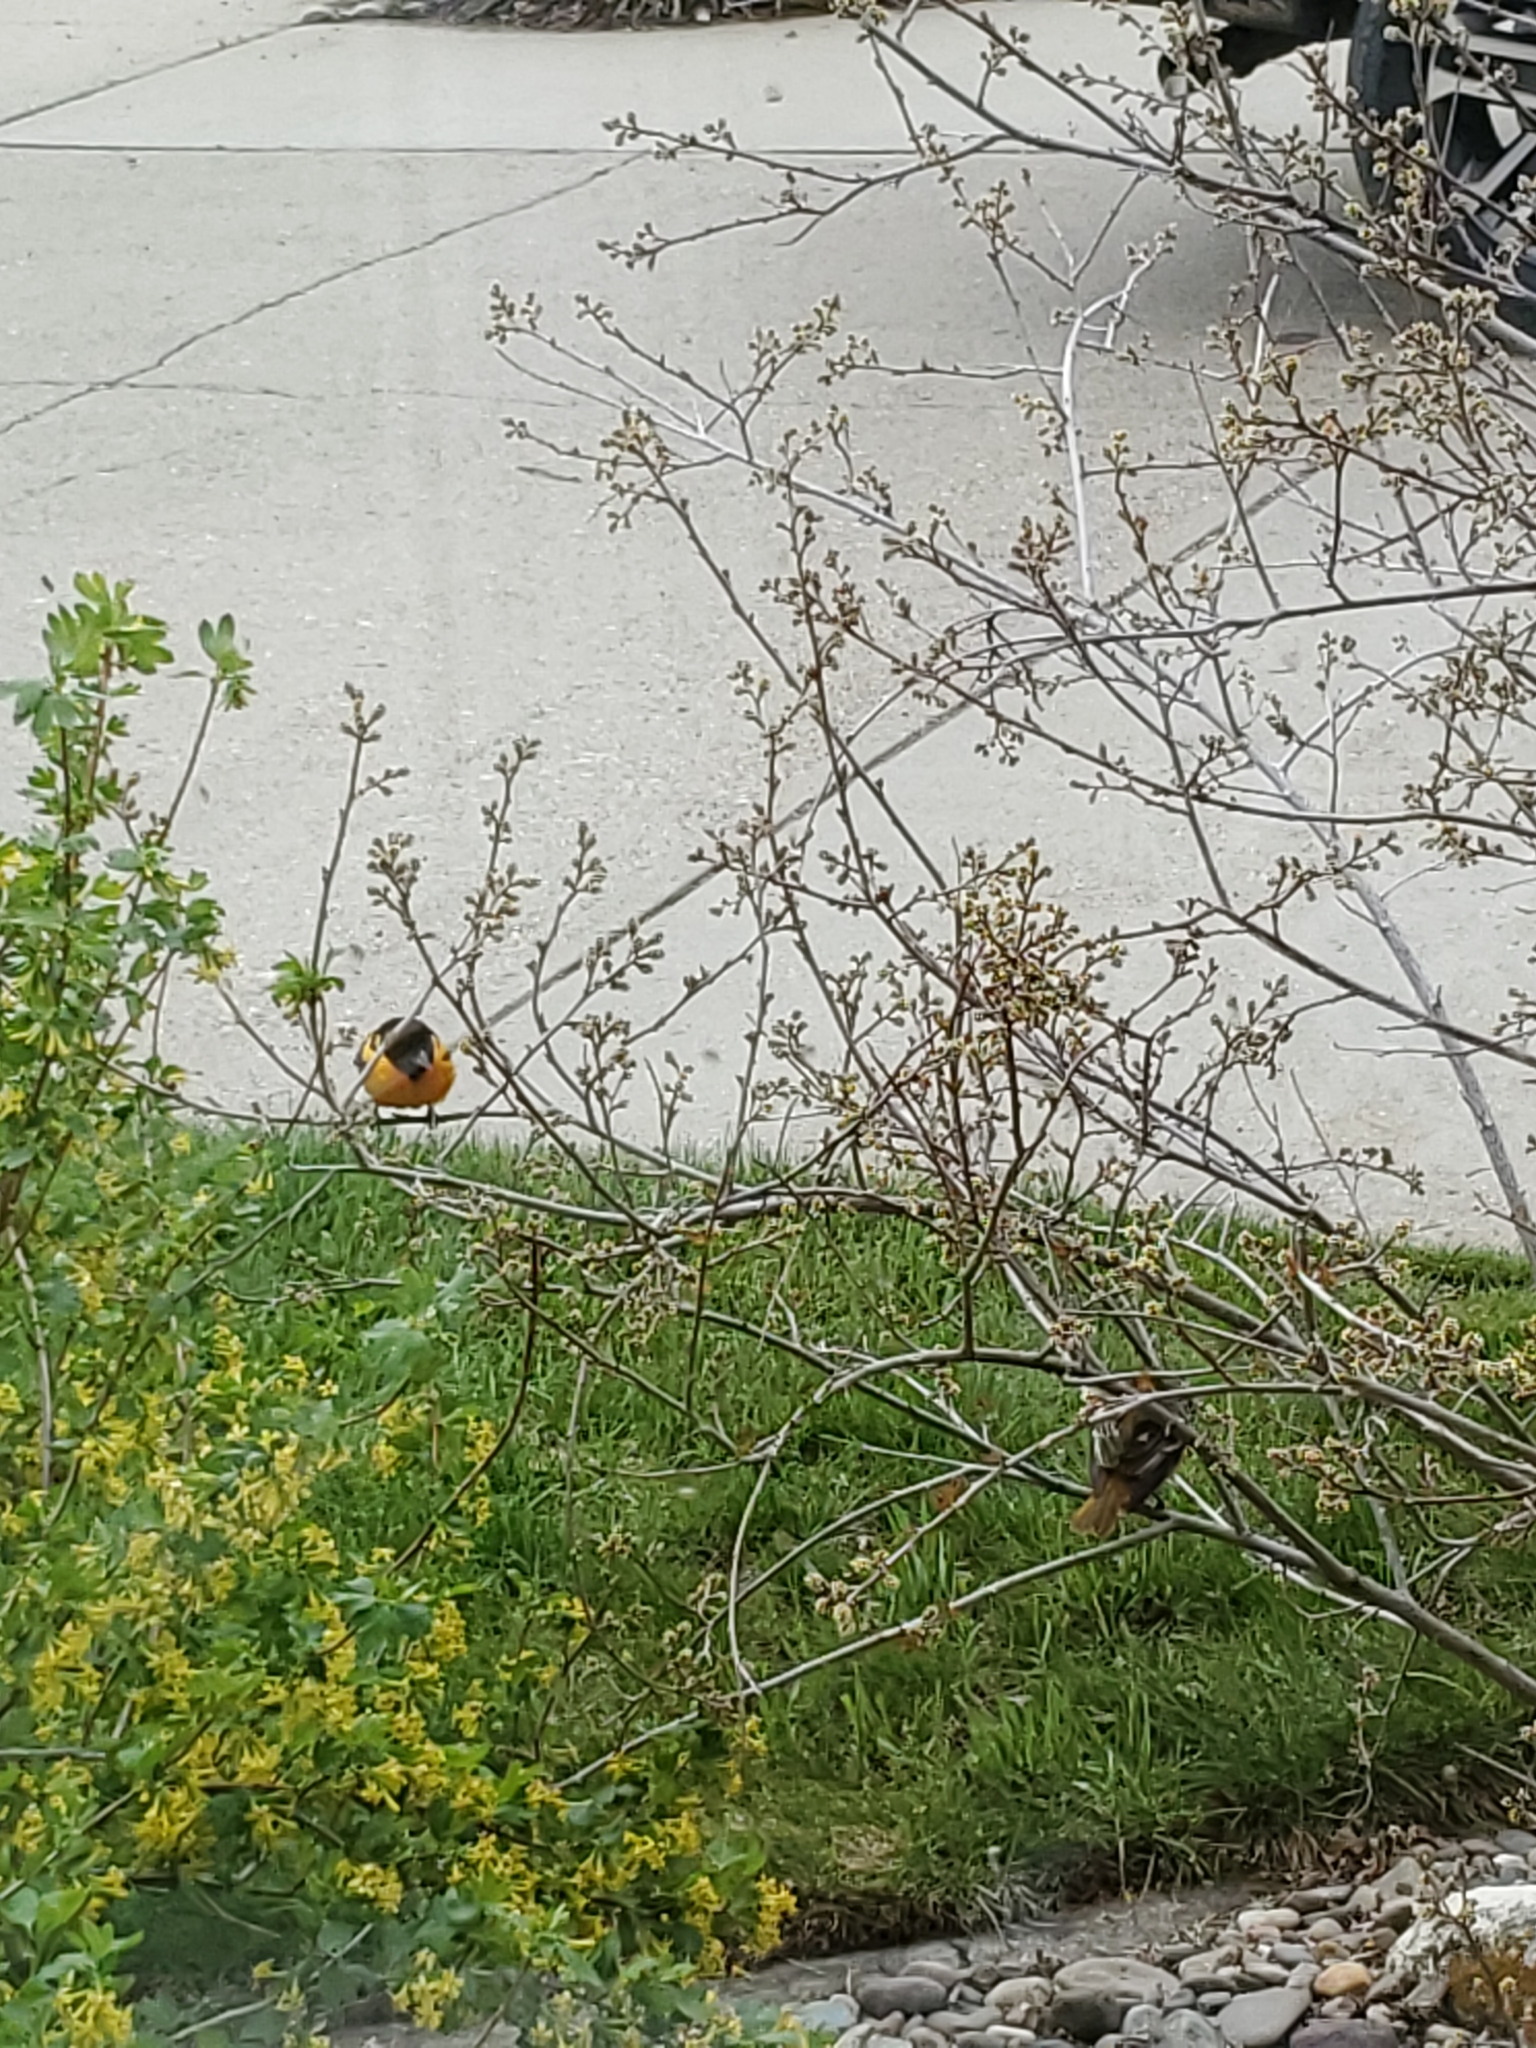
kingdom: Animalia
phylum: Chordata
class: Aves
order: Passeriformes
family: Icteridae
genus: Icterus
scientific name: Icterus galbula
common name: Baltimore oriole
